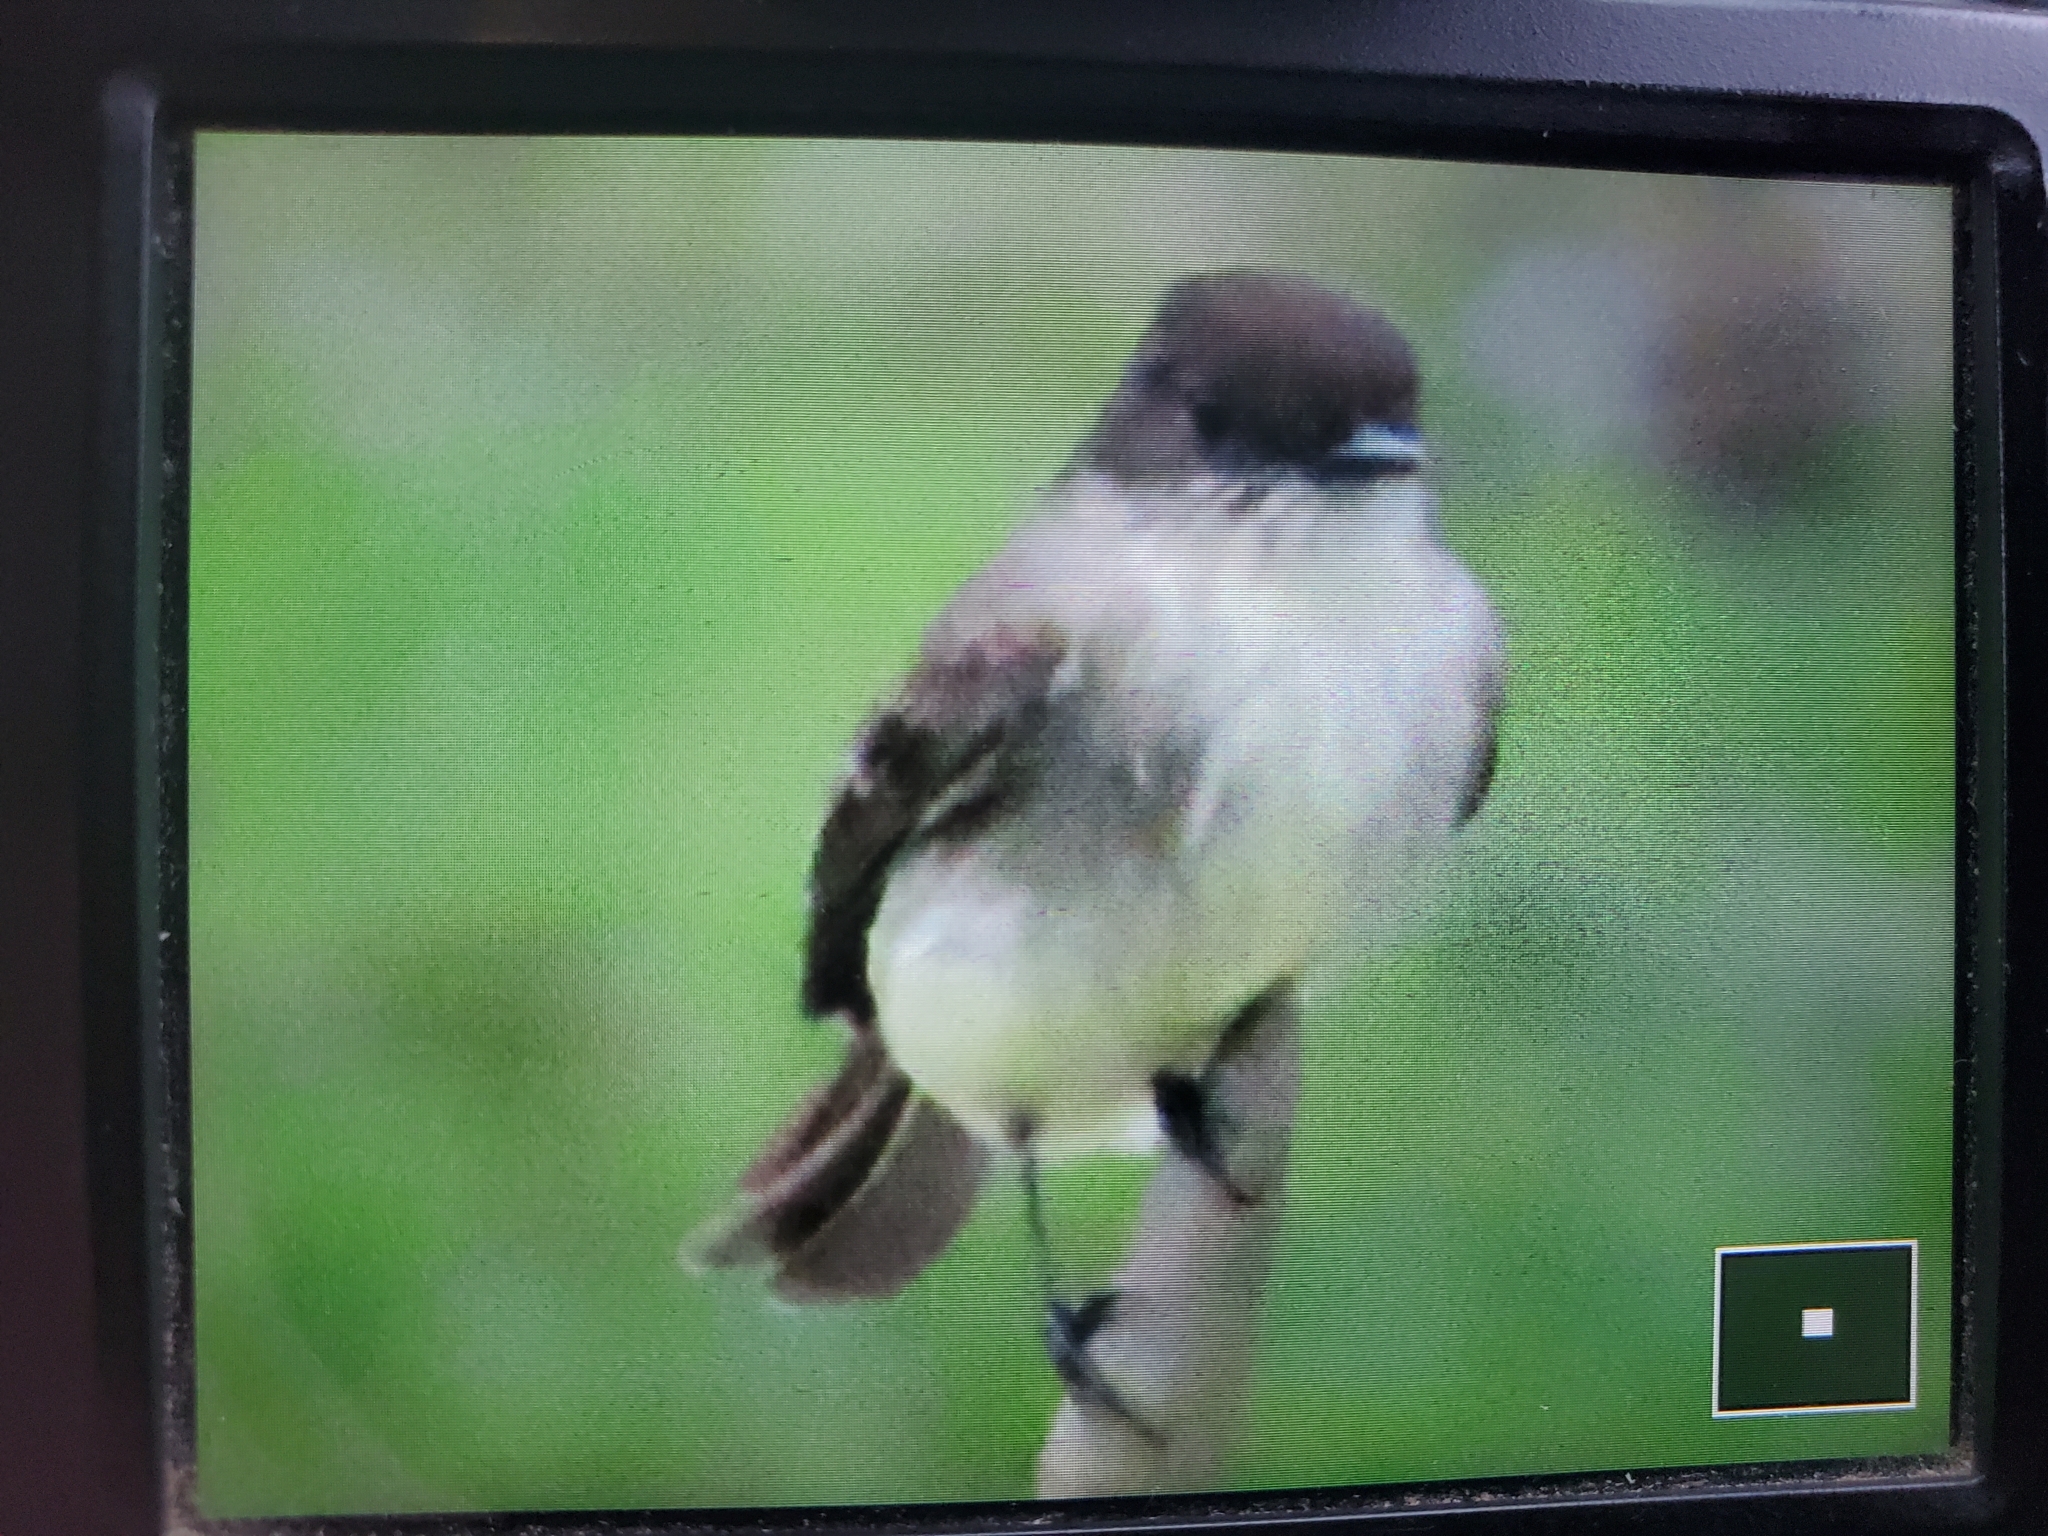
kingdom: Animalia
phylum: Chordata
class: Aves
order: Passeriformes
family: Tyrannidae
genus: Sayornis
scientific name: Sayornis phoebe
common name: Eastern phoebe
